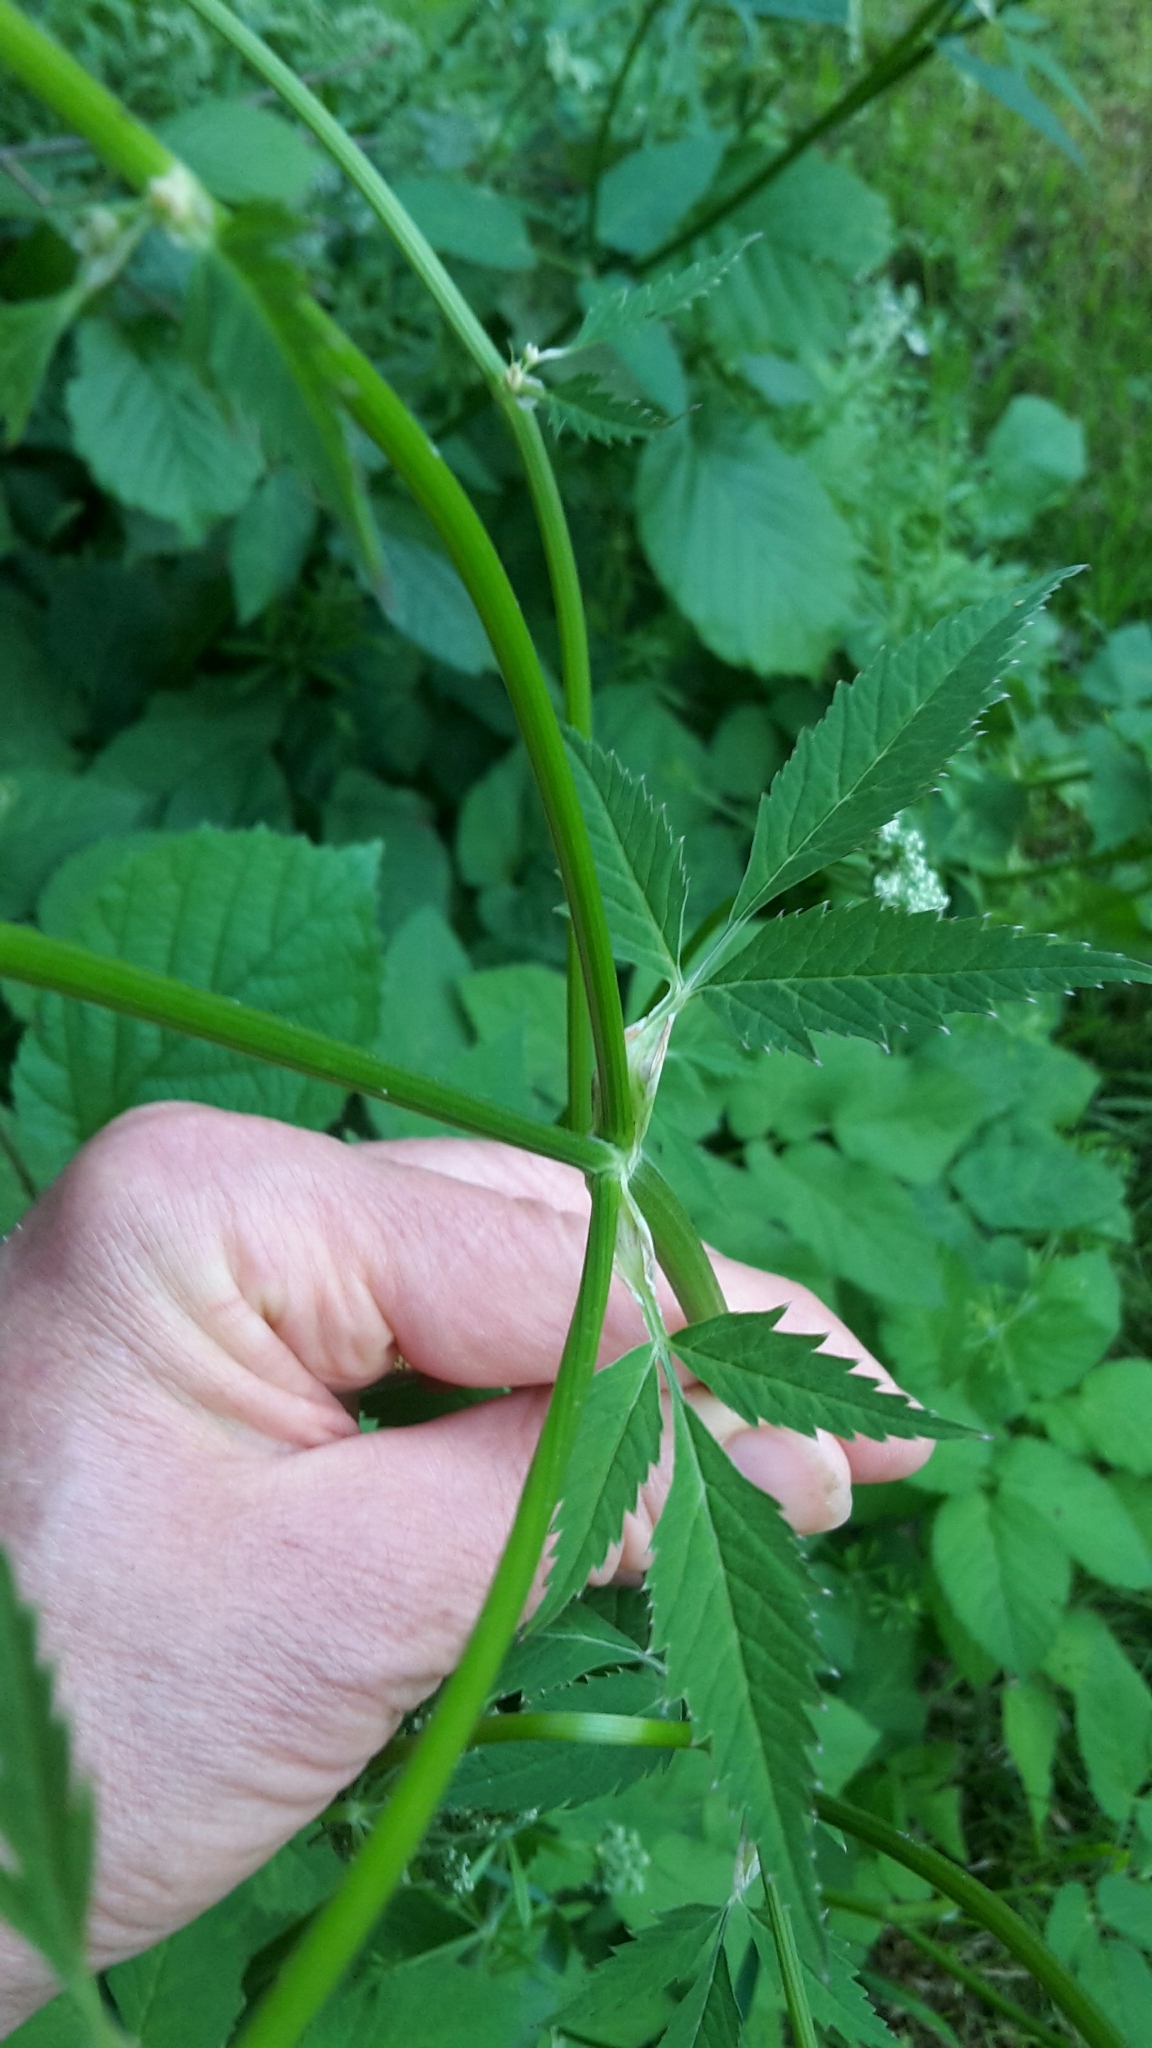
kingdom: Plantae
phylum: Tracheophyta
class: Magnoliopsida
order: Apiales
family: Apiaceae
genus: Aegopodium
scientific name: Aegopodium podagraria
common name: Ground-elder
